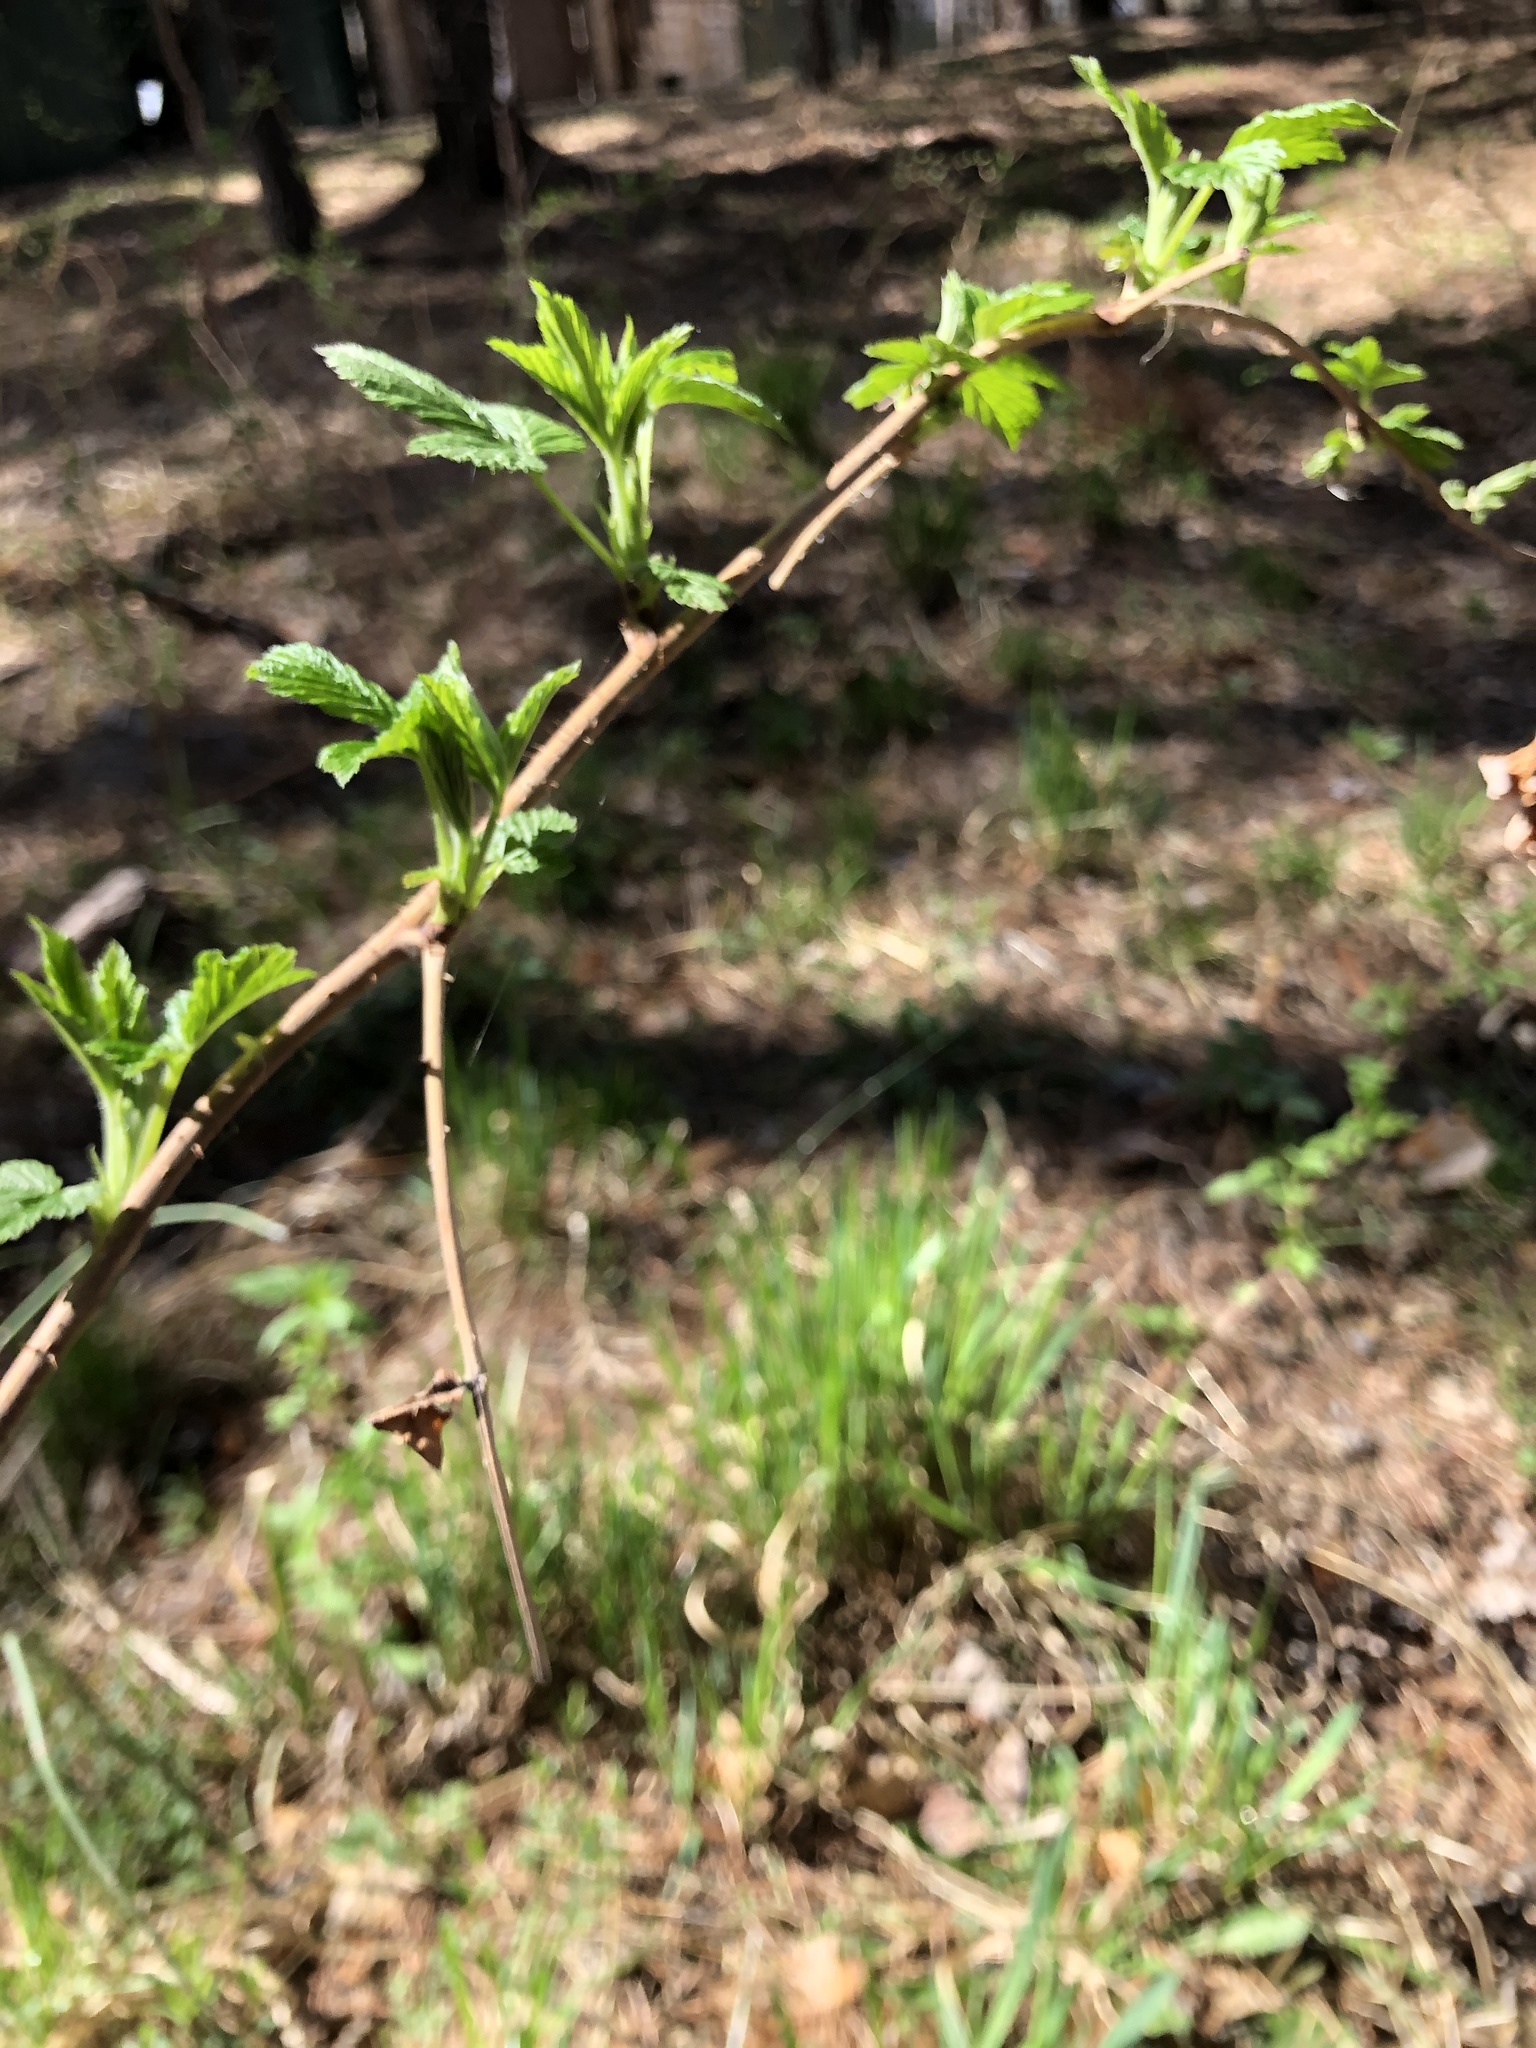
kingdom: Plantae
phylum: Tracheophyta
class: Magnoliopsida
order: Rosales
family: Rosaceae
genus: Rubus
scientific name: Rubus idaeus
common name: Raspberry
